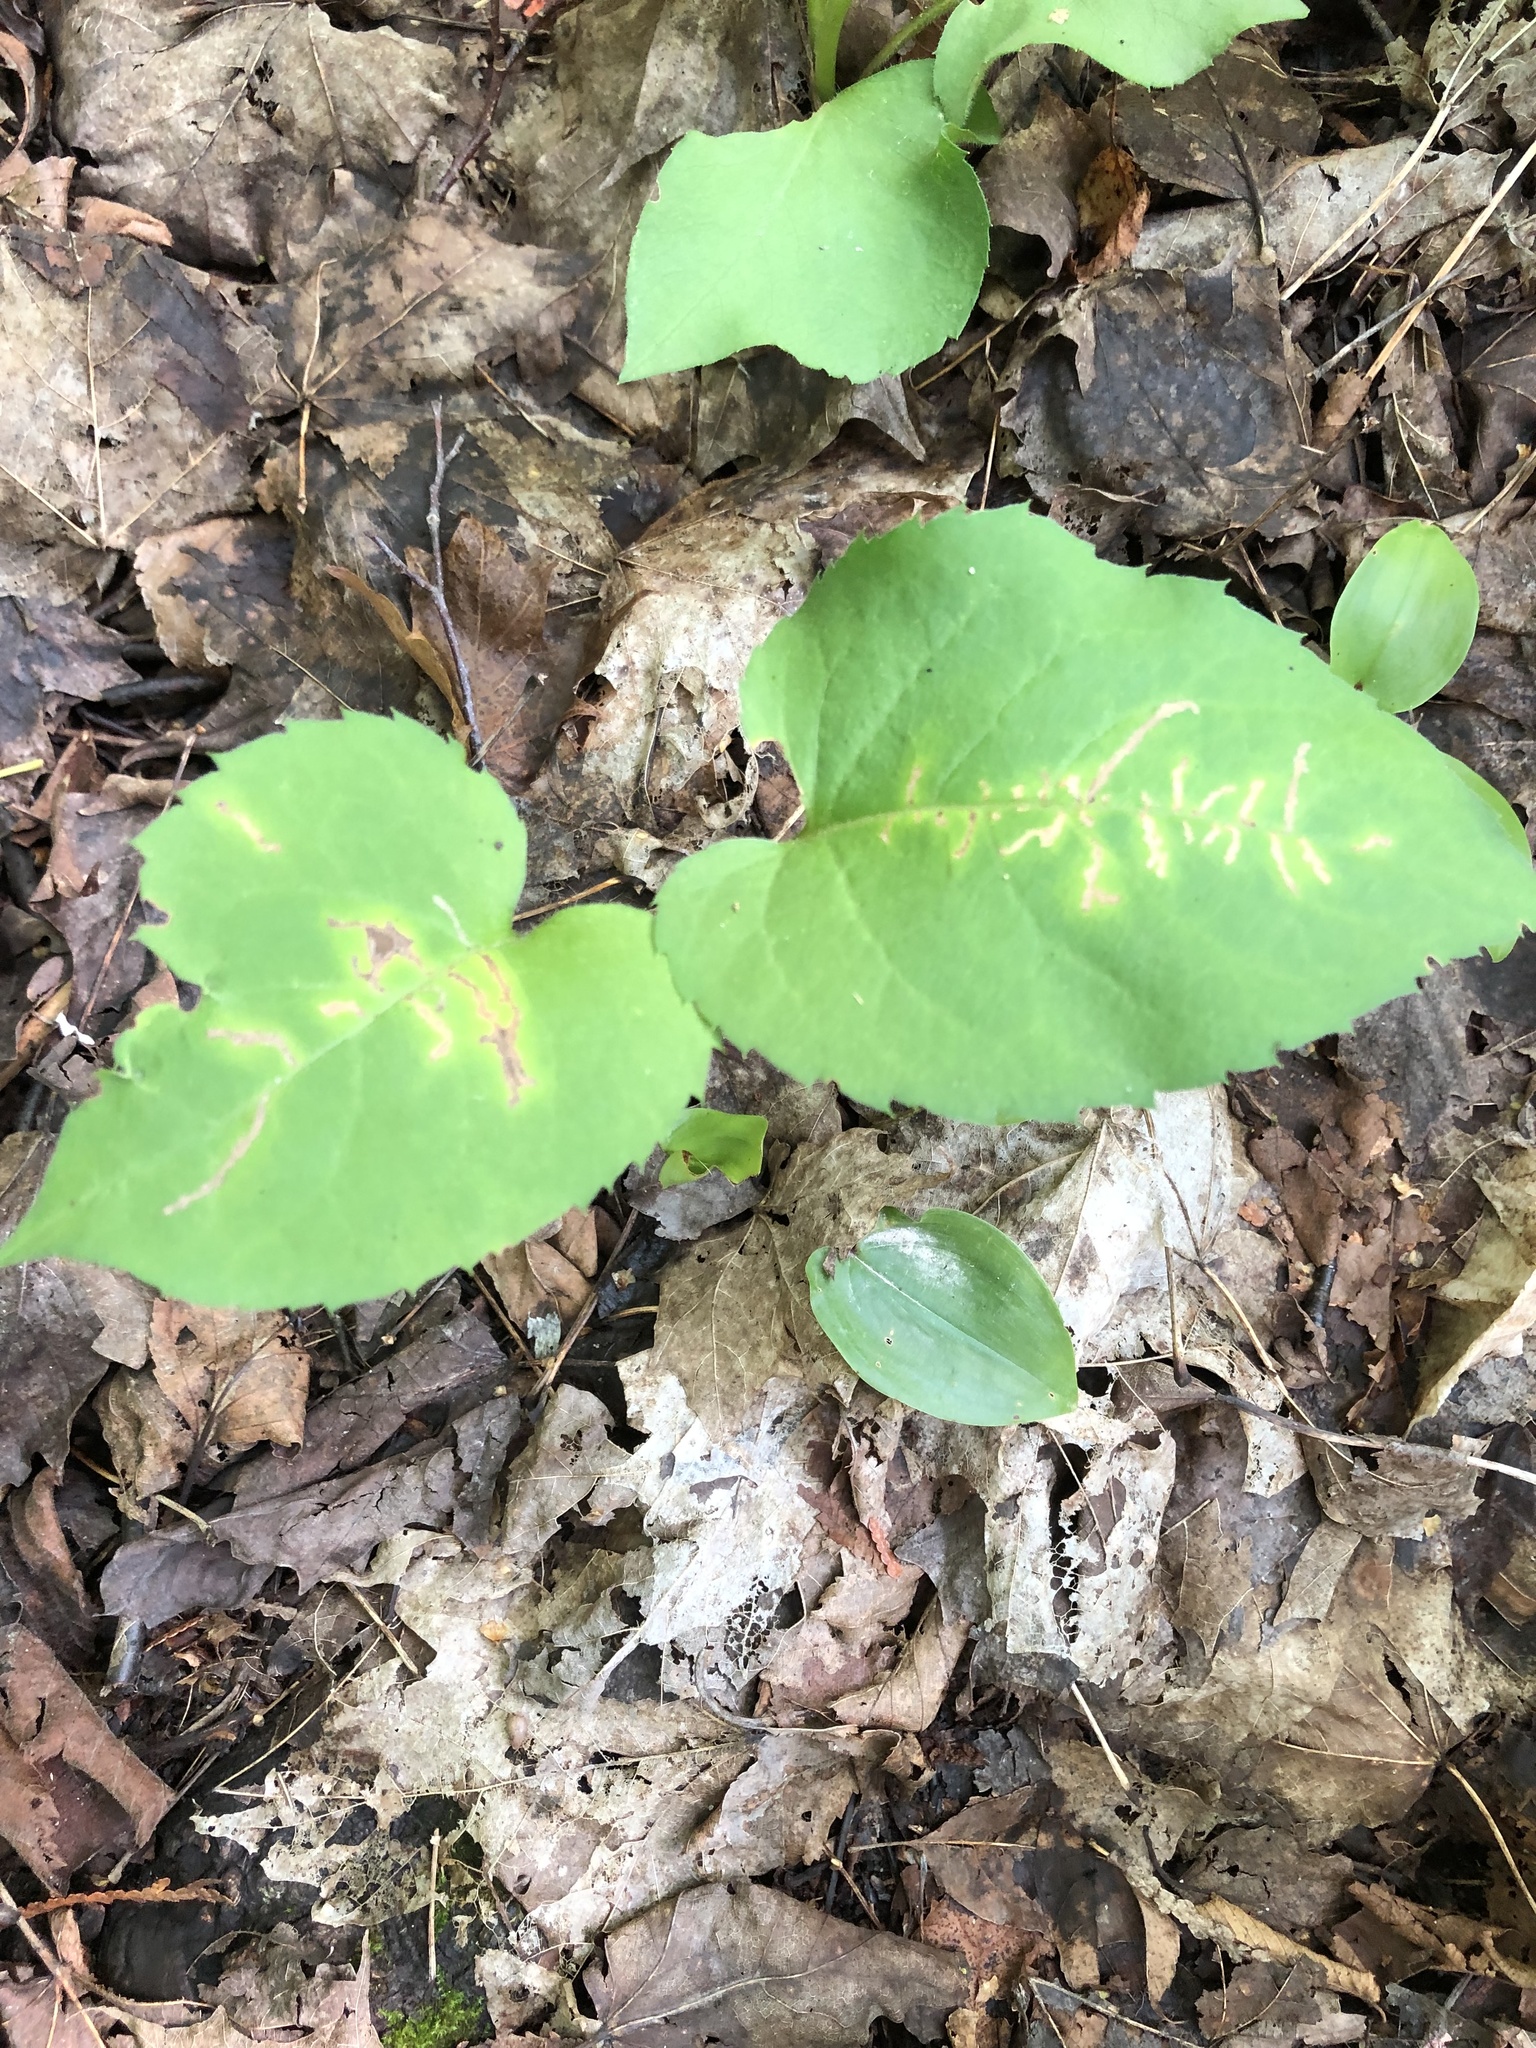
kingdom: Plantae
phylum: Tracheophyta
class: Magnoliopsida
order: Asterales
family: Asteraceae
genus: Eurybia
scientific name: Eurybia macrophylla
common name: Big-leaved aster
